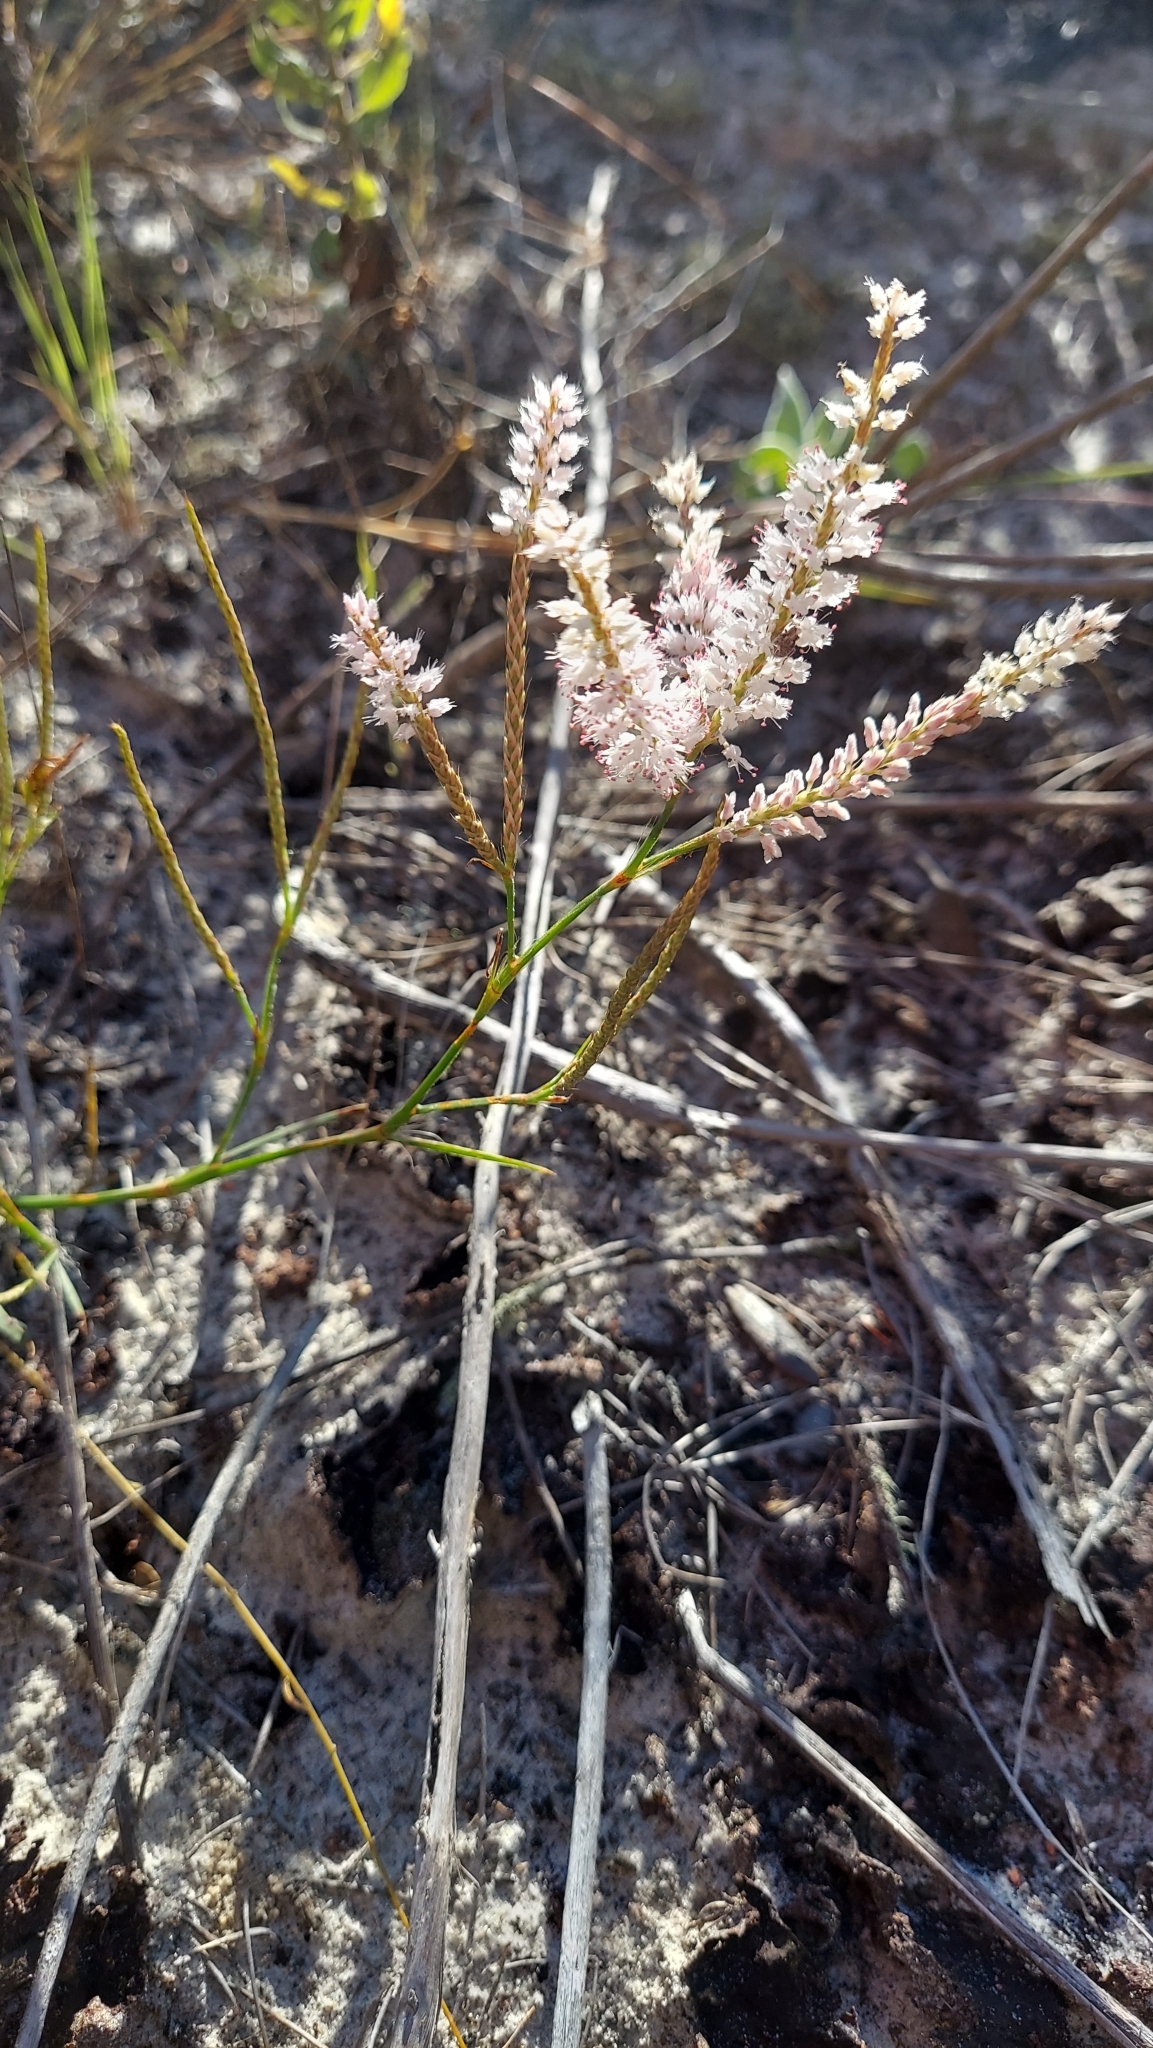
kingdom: Plantae
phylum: Tracheophyta
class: Magnoliopsida
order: Caryophyllales
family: Polygonaceae
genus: Polygonella
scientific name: Polygonella robusta
